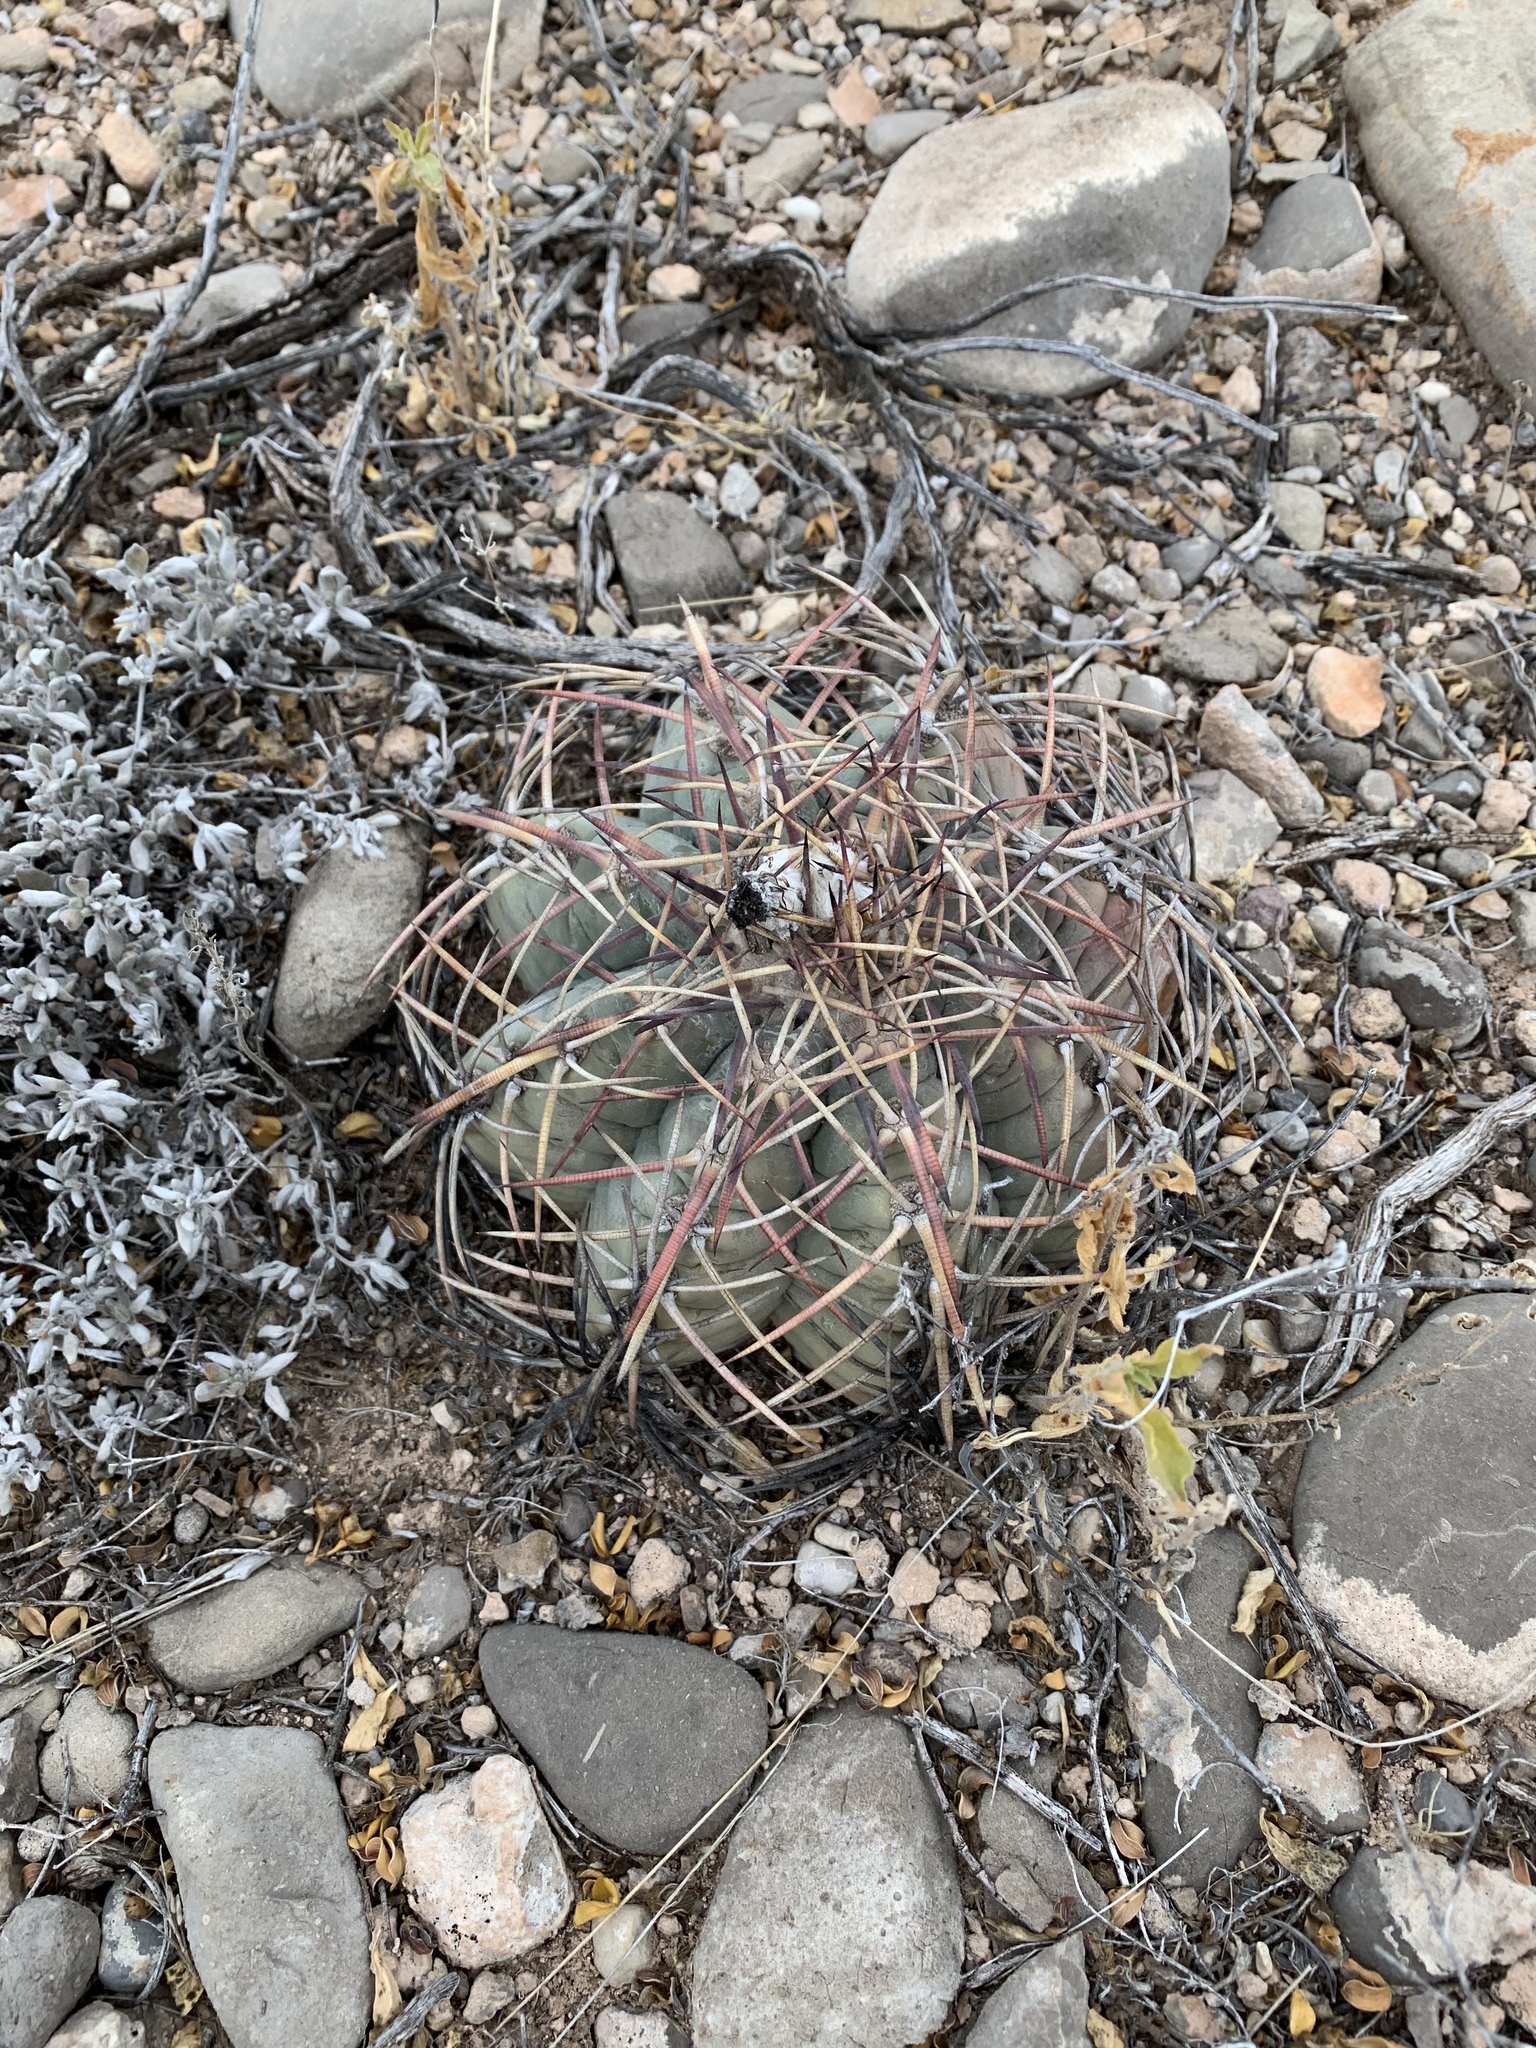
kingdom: Plantae
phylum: Tracheophyta
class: Magnoliopsida
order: Caryophyllales
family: Cactaceae
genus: Echinocactus
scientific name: Echinocactus horizonthalonius
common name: Devilshead
